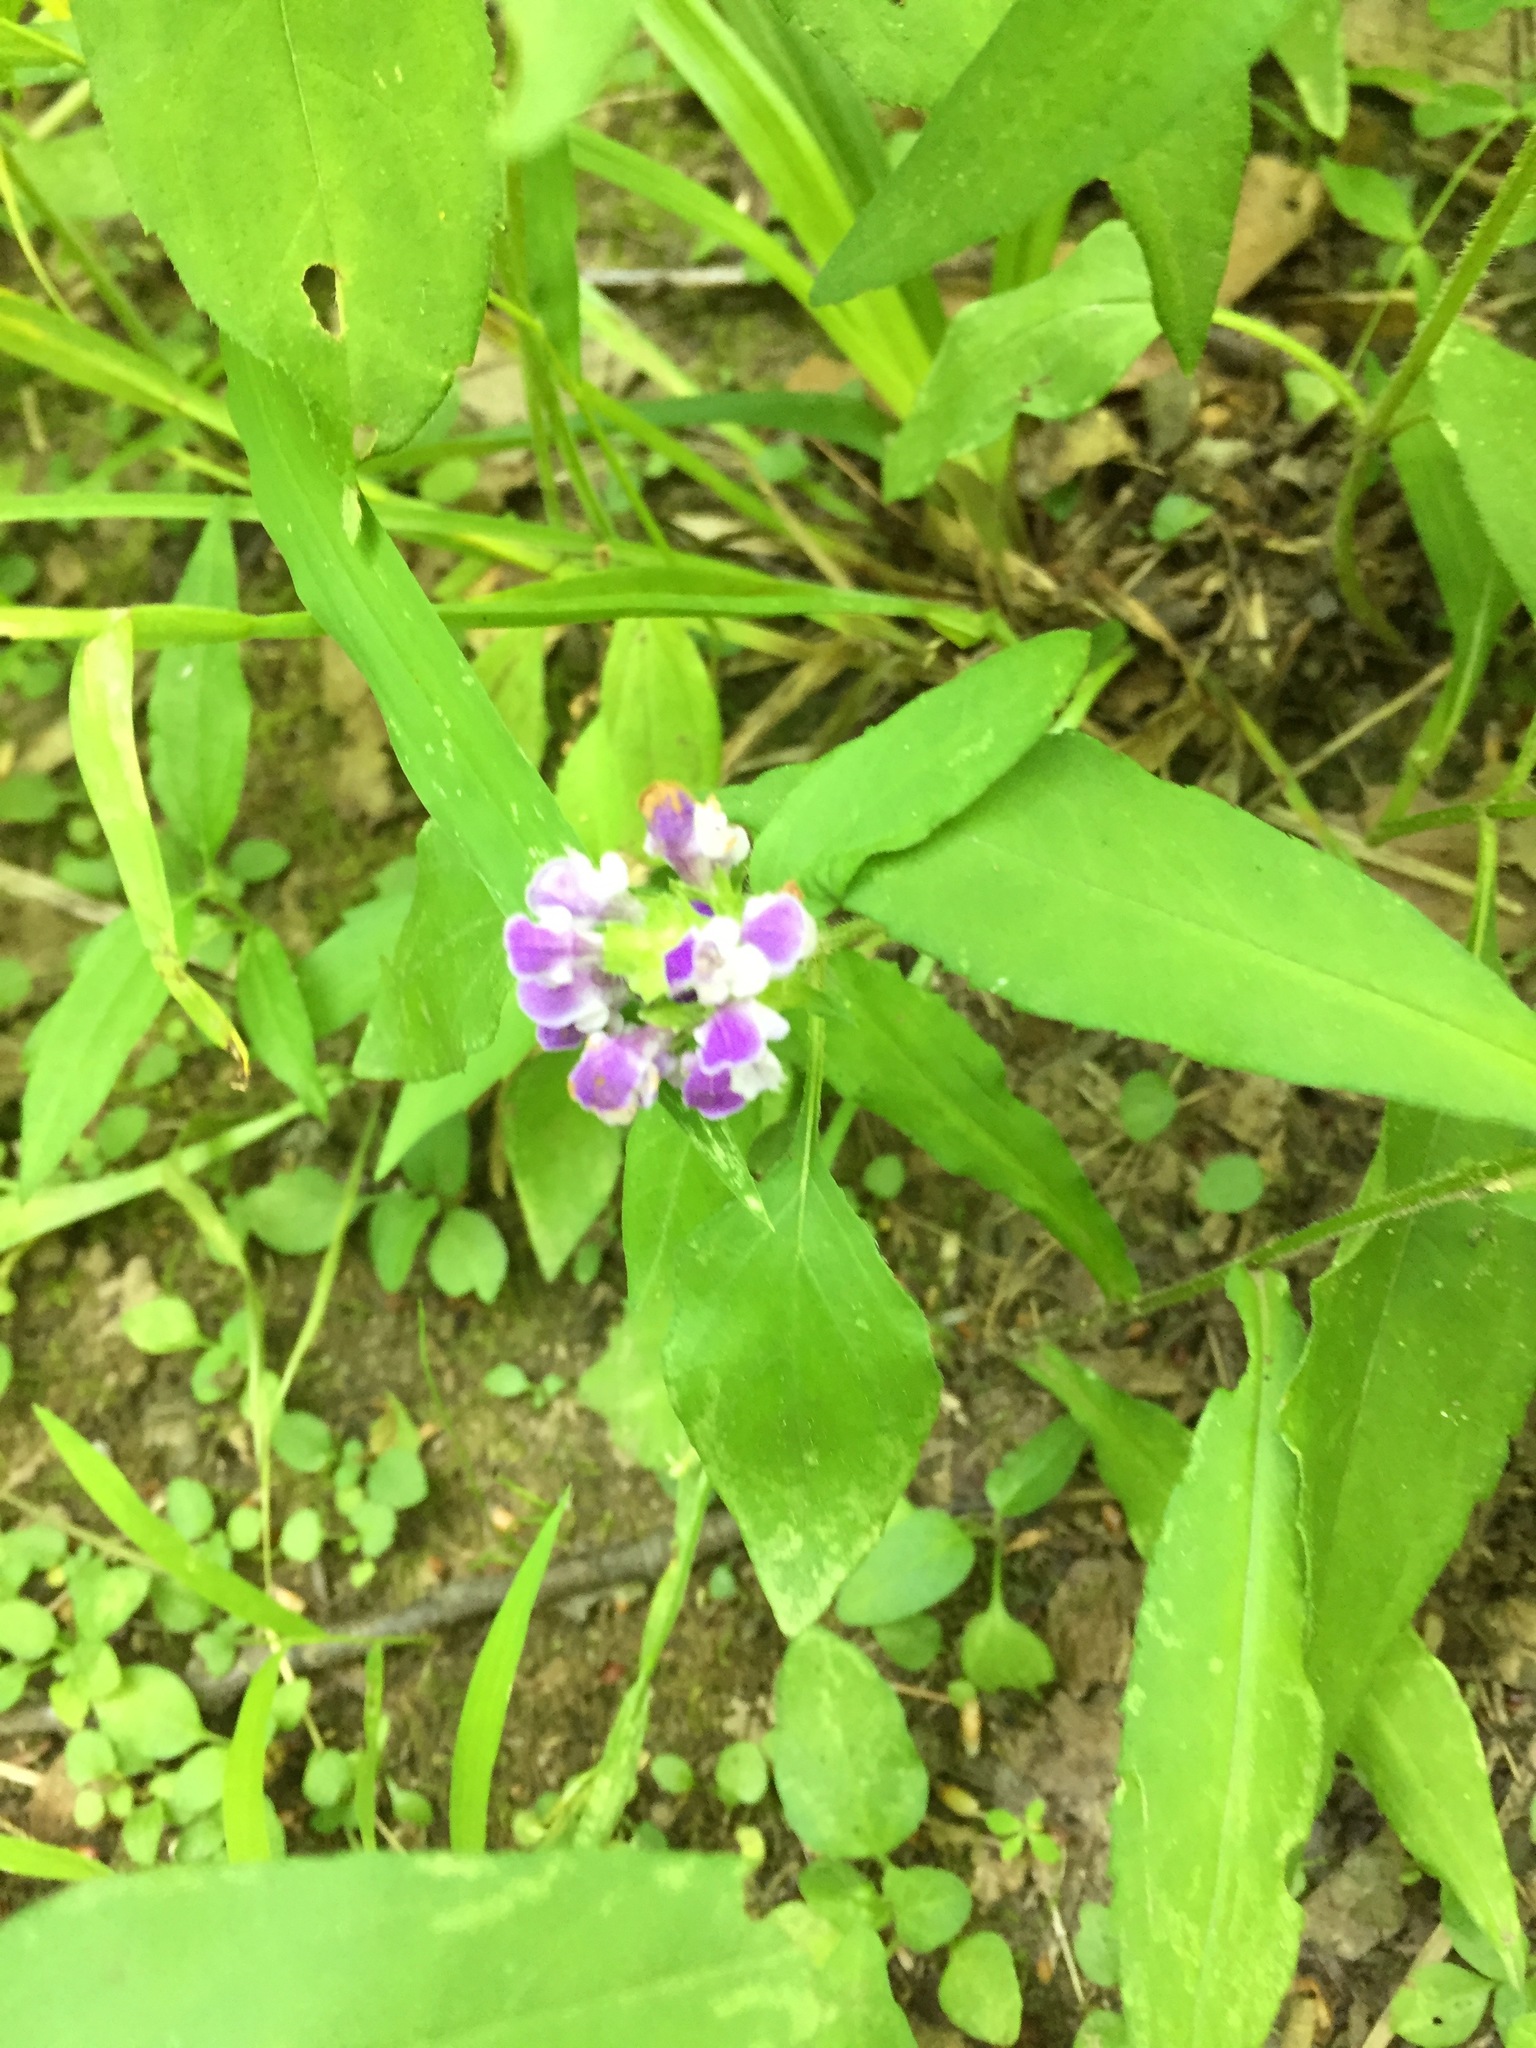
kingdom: Plantae
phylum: Tracheophyta
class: Magnoliopsida
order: Lamiales
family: Lamiaceae
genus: Prunella
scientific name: Prunella vulgaris
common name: Heal-all
